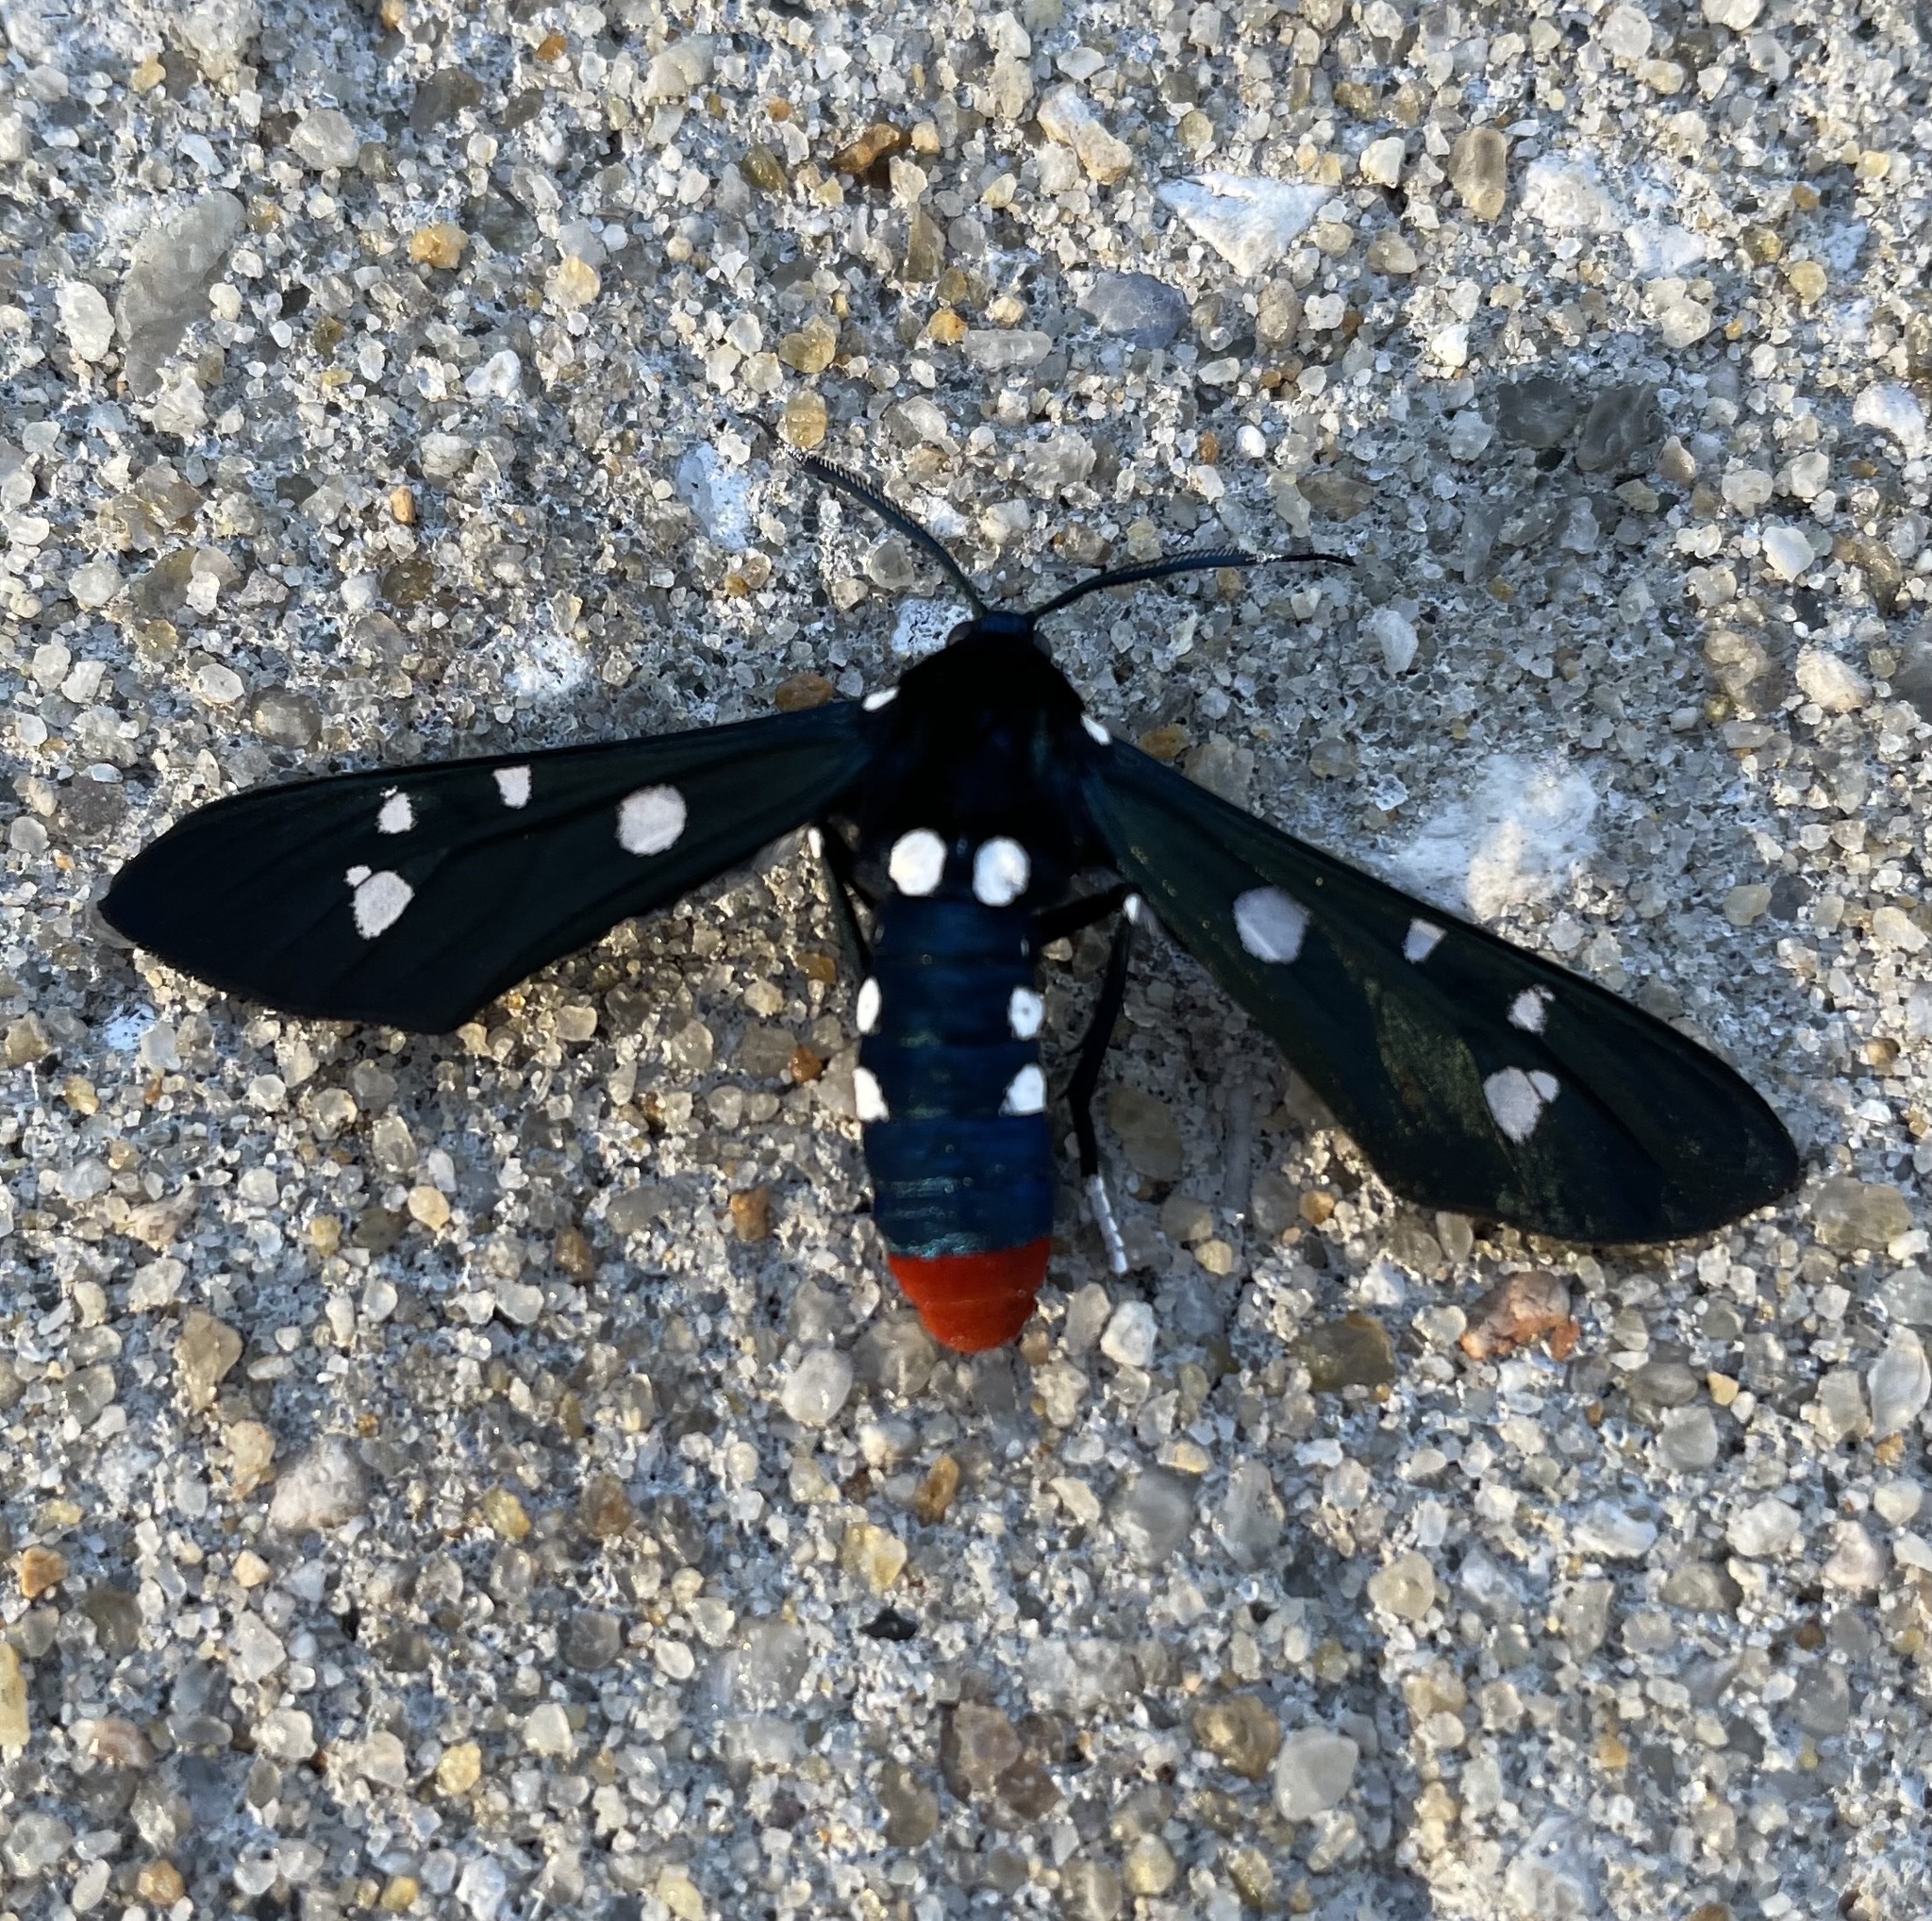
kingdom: Animalia
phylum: Arthropoda
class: Insecta
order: Lepidoptera
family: Erebidae
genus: Syntomeida
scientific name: Syntomeida epilais
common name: Polka-dot wasp moth
